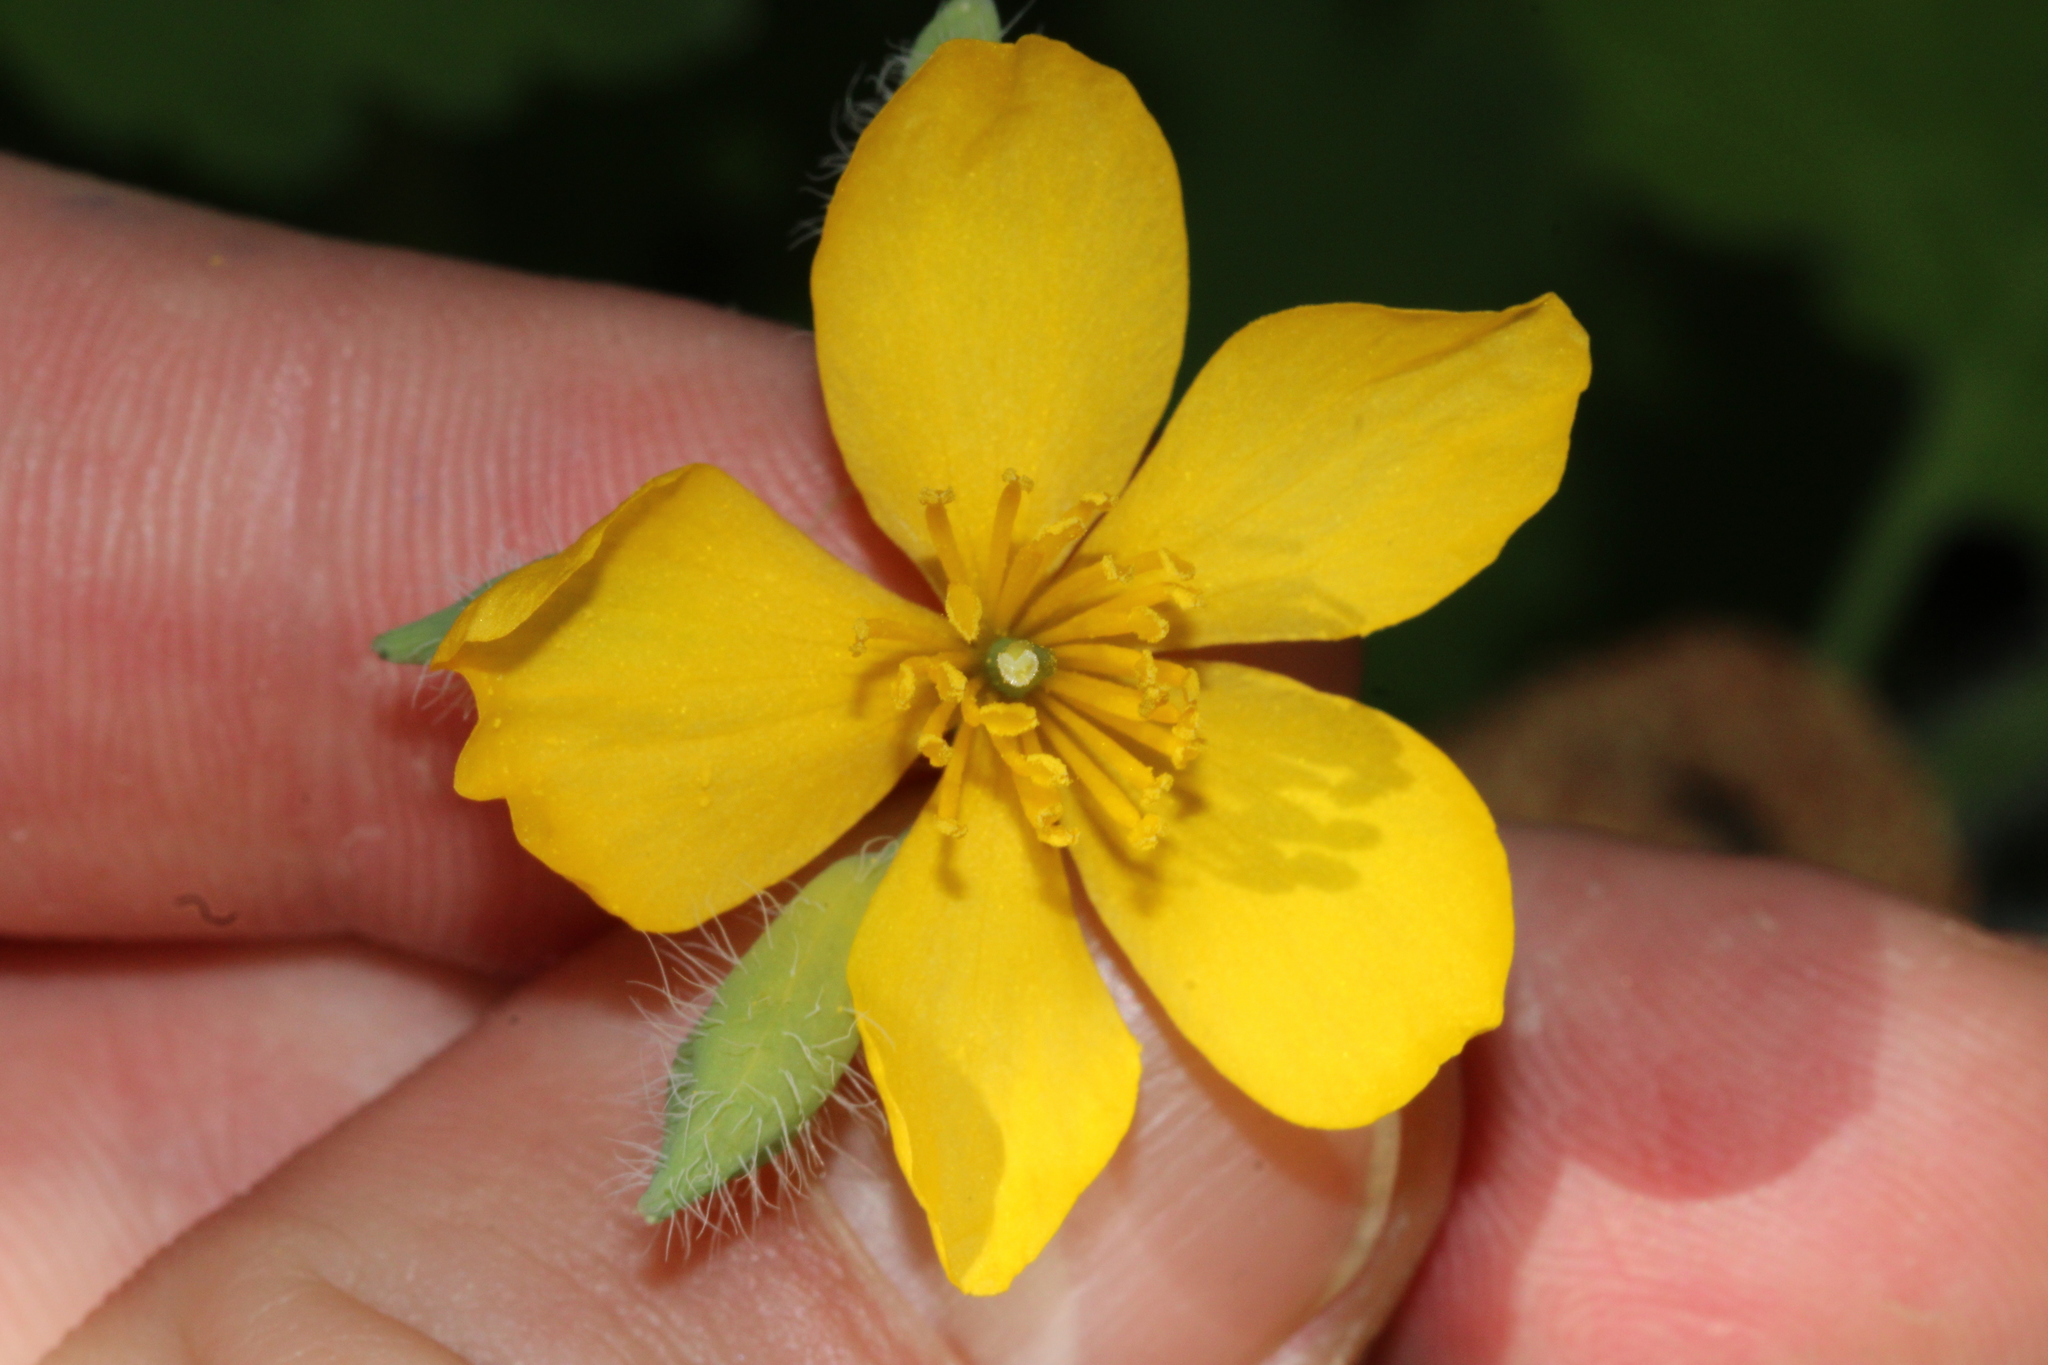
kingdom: Plantae
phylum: Tracheophyta
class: Magnoliopsida
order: Ranunculales
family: Papaveraceae
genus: Chelidonium
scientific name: Chelidonium majus
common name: Greater celandine
